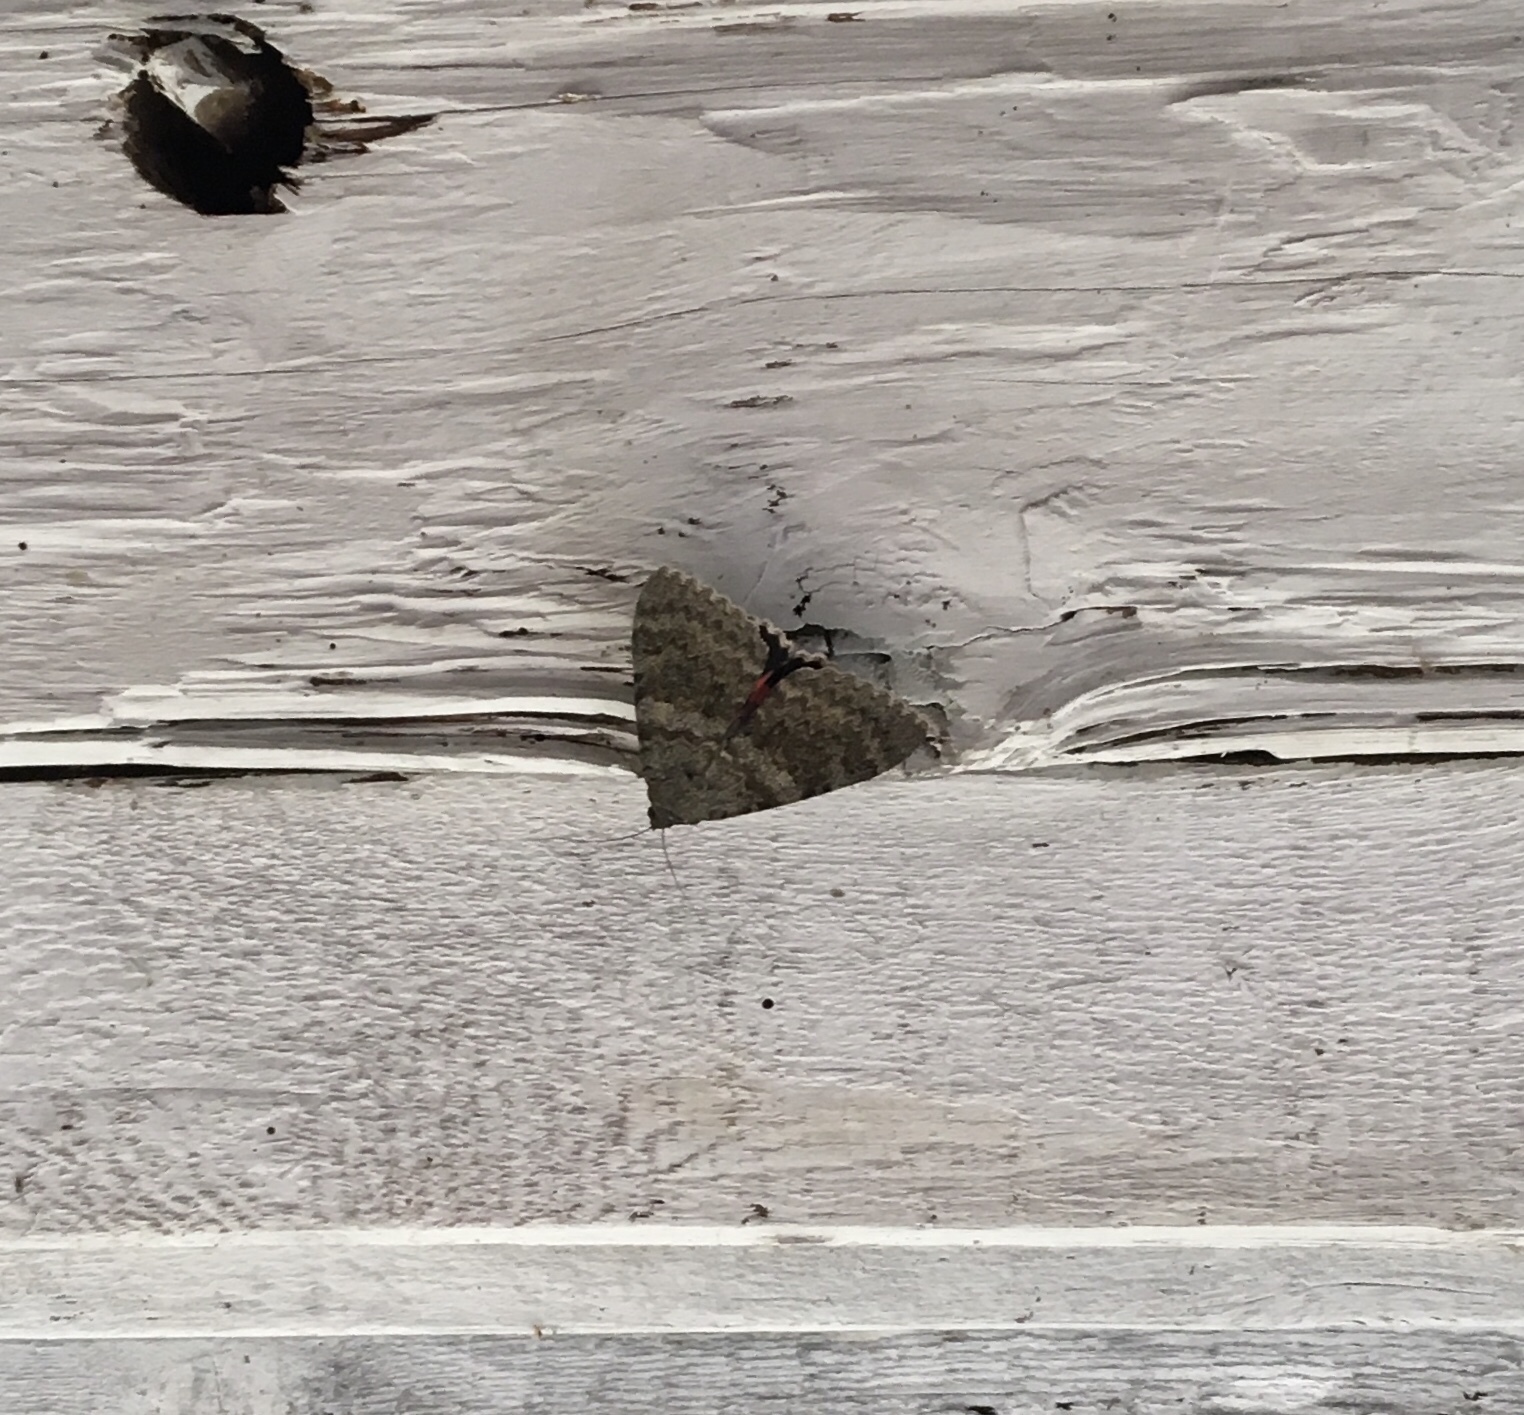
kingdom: Animalia
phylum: Arthropoda
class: Insecta
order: Lepidoptera
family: Erebidae
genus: Catocala
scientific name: Catocala elocata
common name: French red underwing
